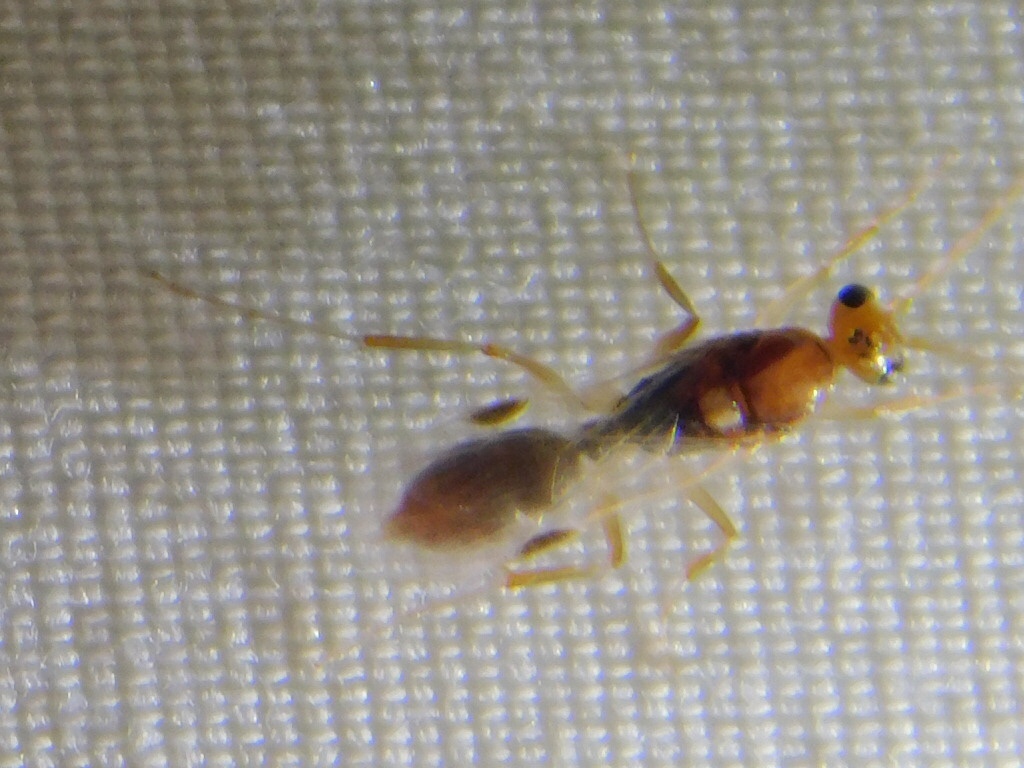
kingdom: Animalia
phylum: Arthropoda
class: Insecta
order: Hymenoptera
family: Formicidae
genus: Odontomachus
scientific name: Odontomachus ruginodis
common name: Trapjaw ant
